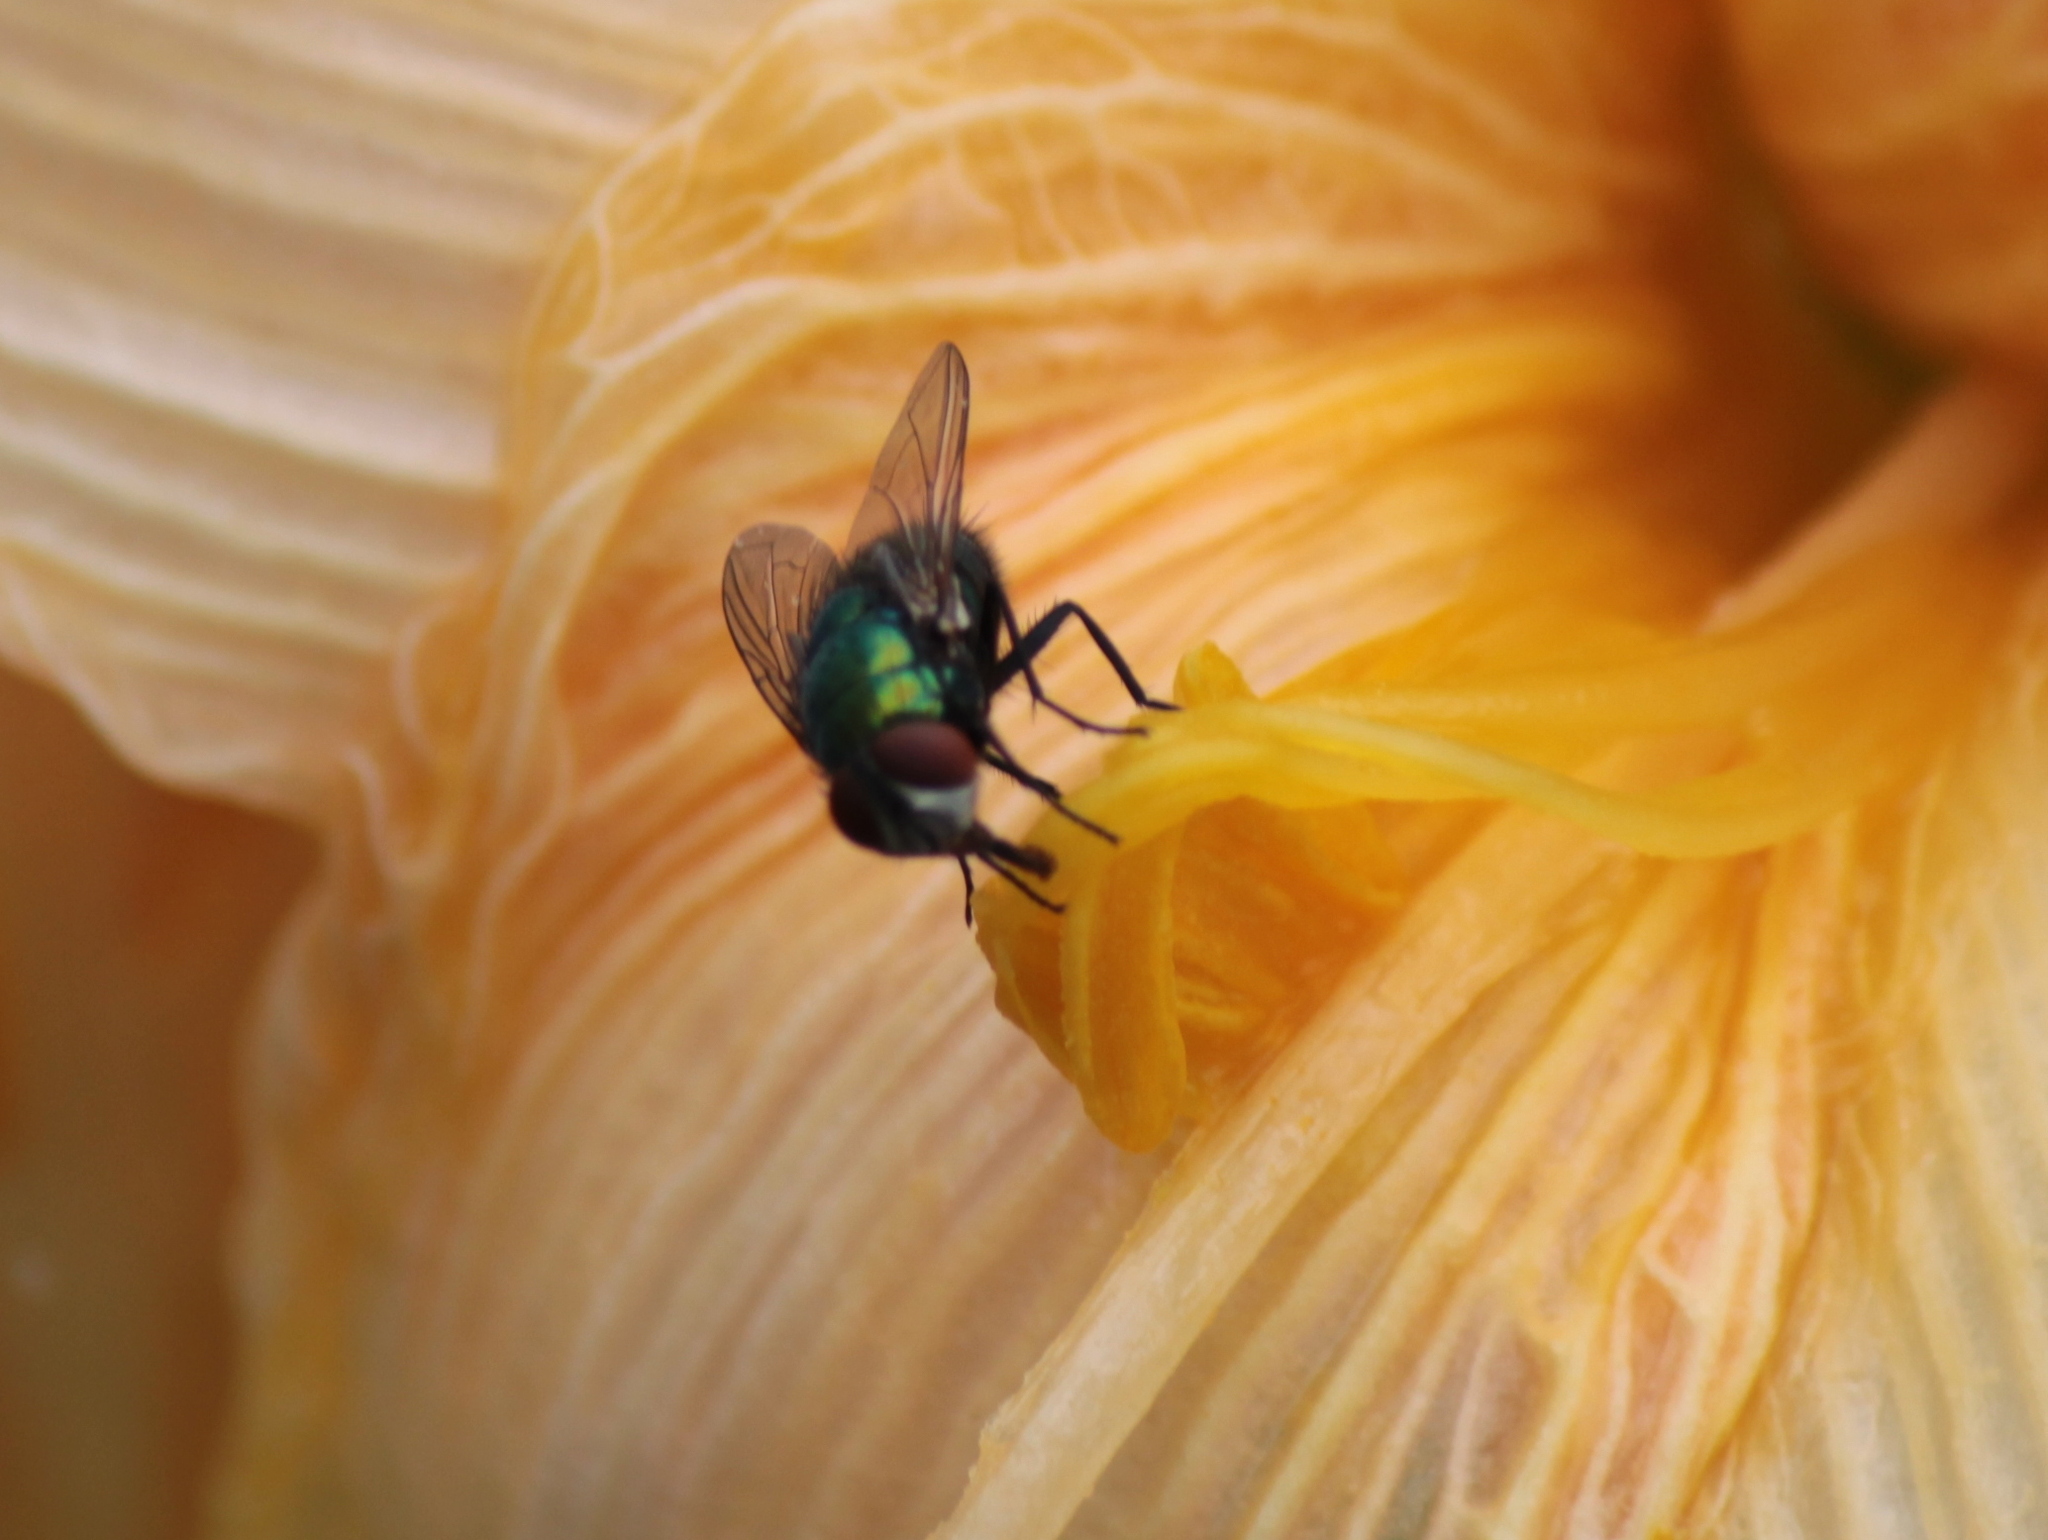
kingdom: Animalia
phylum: Arthropoda
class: Insecta
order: Diptera
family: Calliphoridae
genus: Lucilia
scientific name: Lucilia sericata
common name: Blow fly
